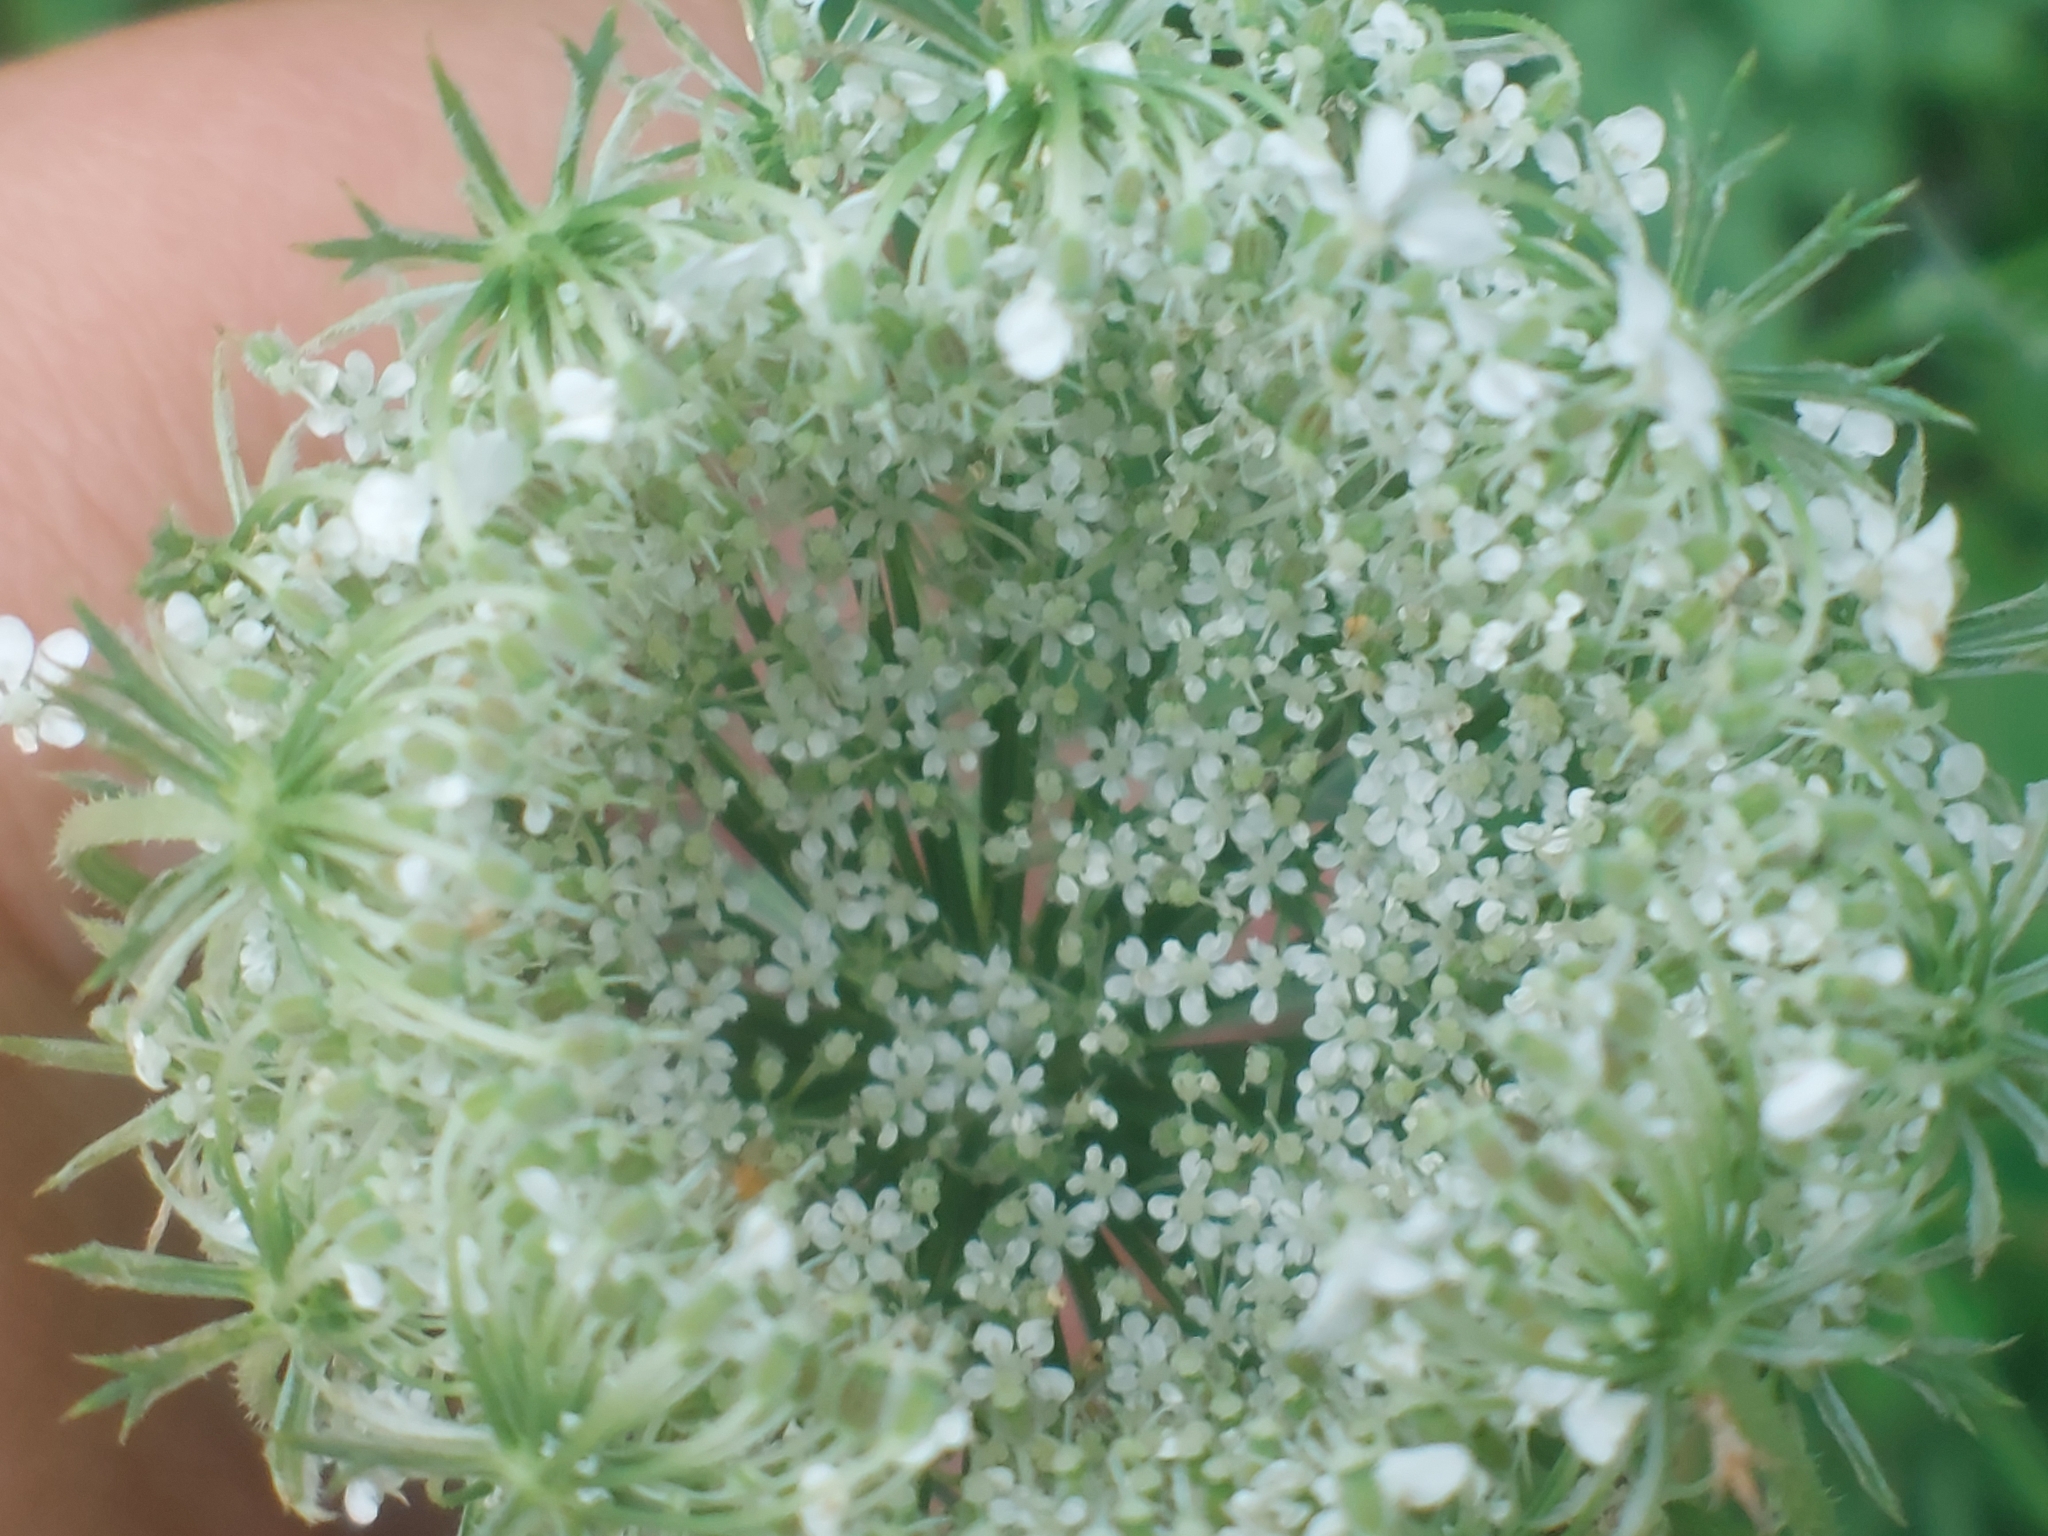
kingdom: Plantae
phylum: Tracheophyta
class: Magnoliopsida
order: Apiales
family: Apiaceae
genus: Daucus
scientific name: Daucus carota
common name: Wild carrot
